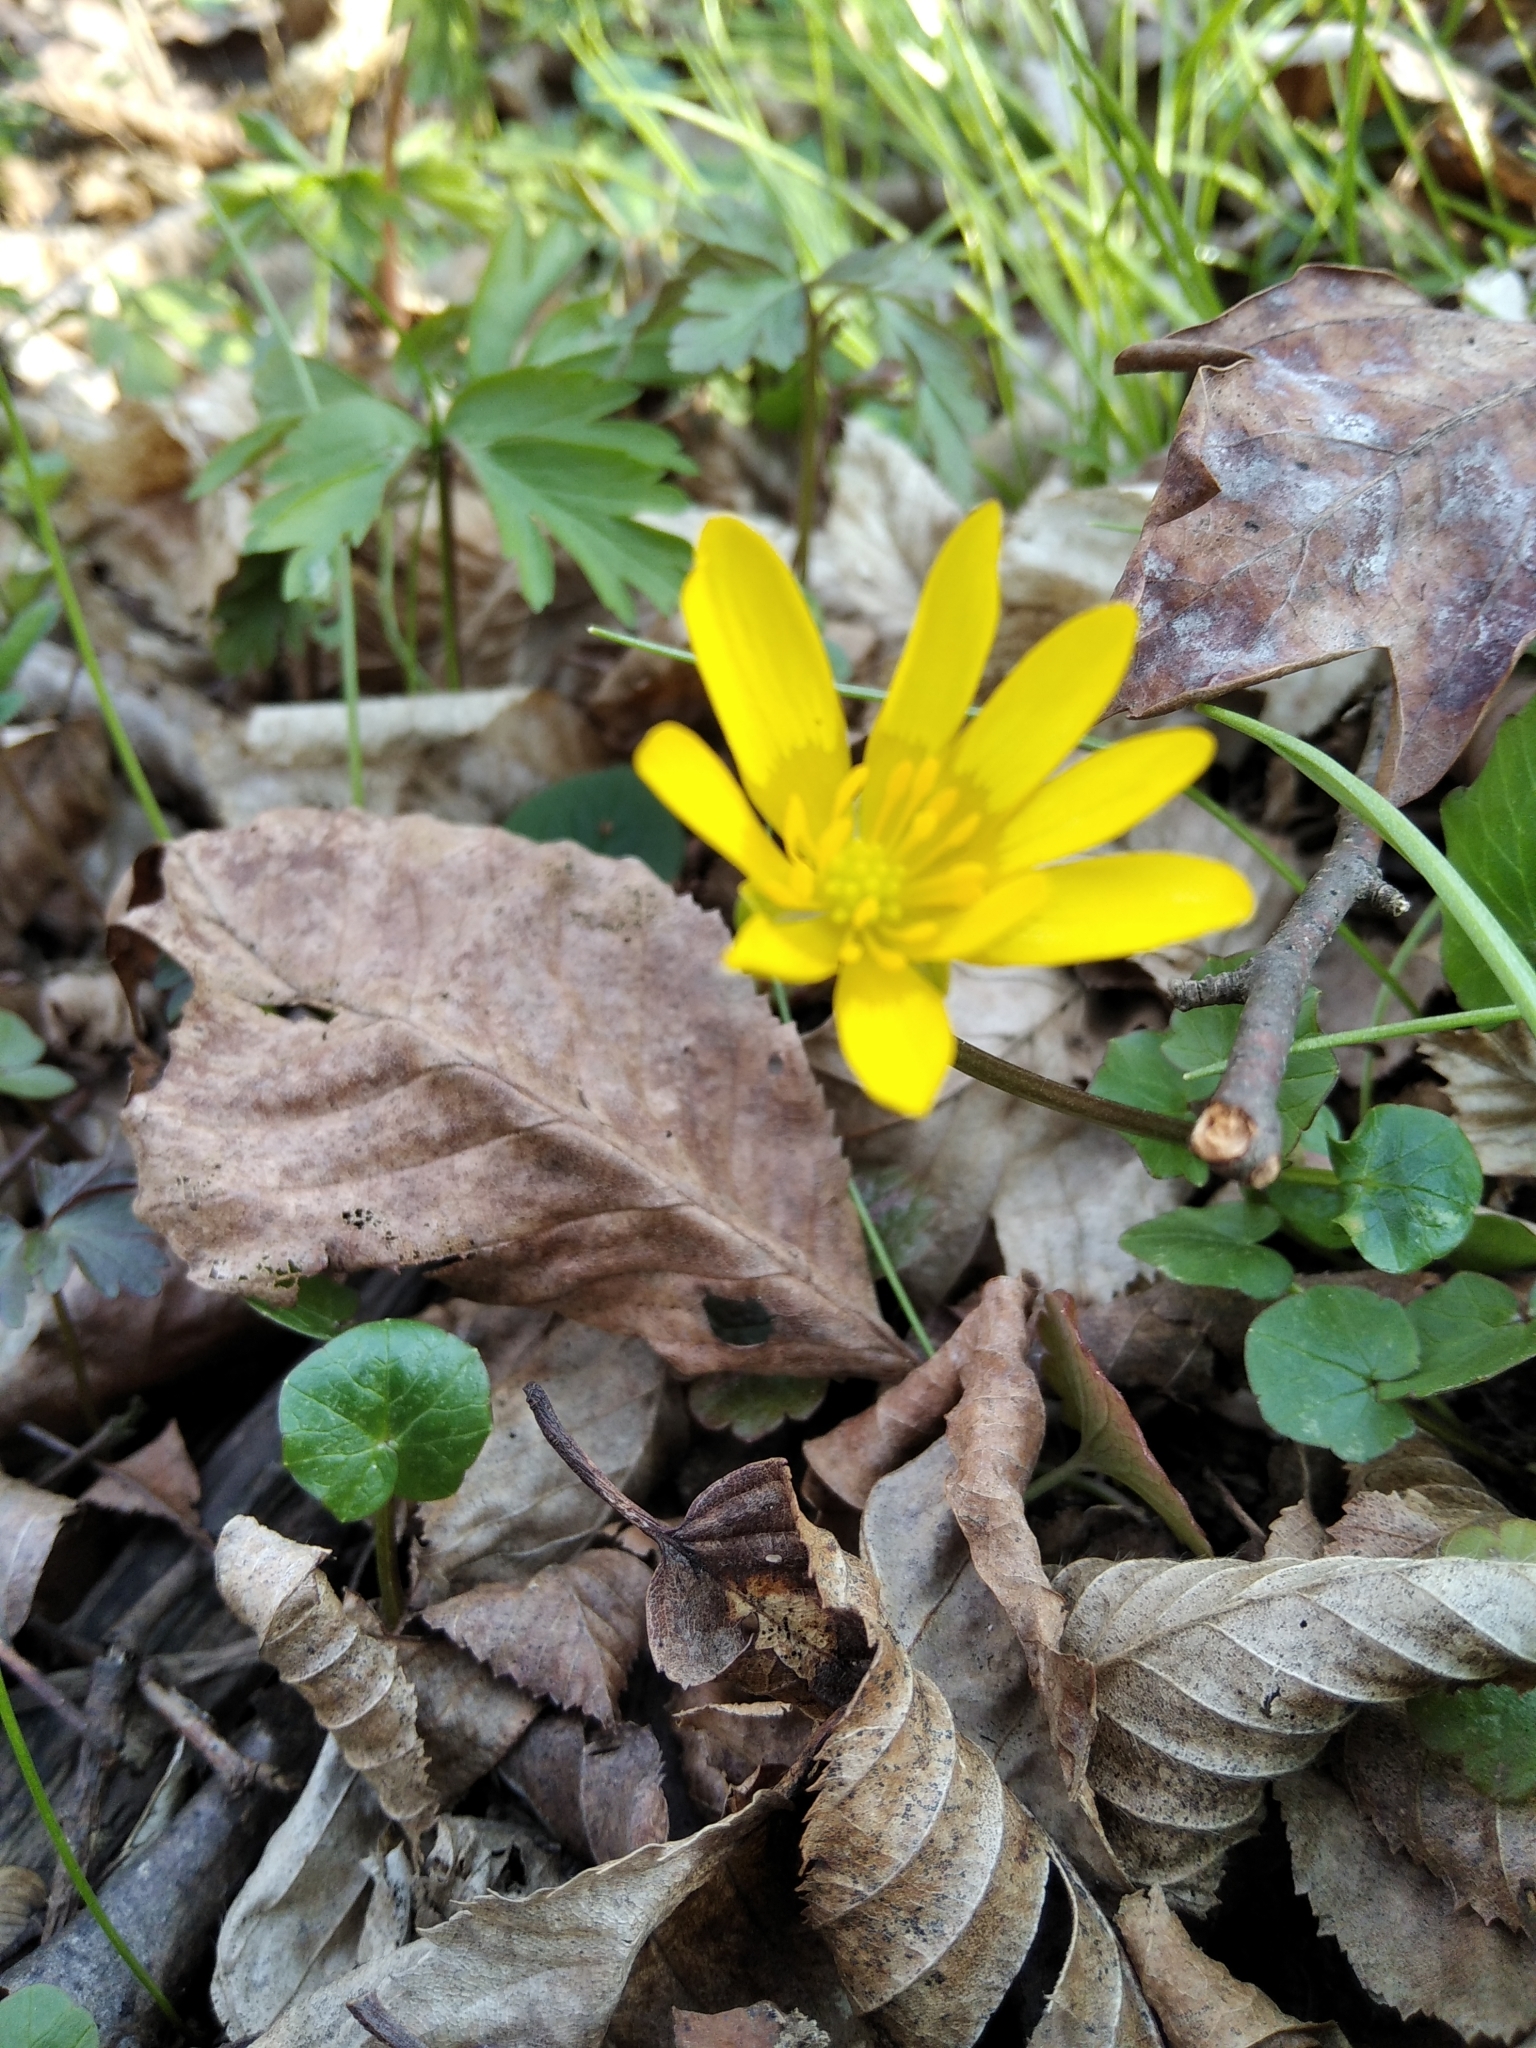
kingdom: Plantae
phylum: Tracheophyta
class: Magnoliopsida
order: Ranunculales
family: Ranunculaceae
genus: Ficaria
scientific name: Ficaria verna
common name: Lesser celandine
